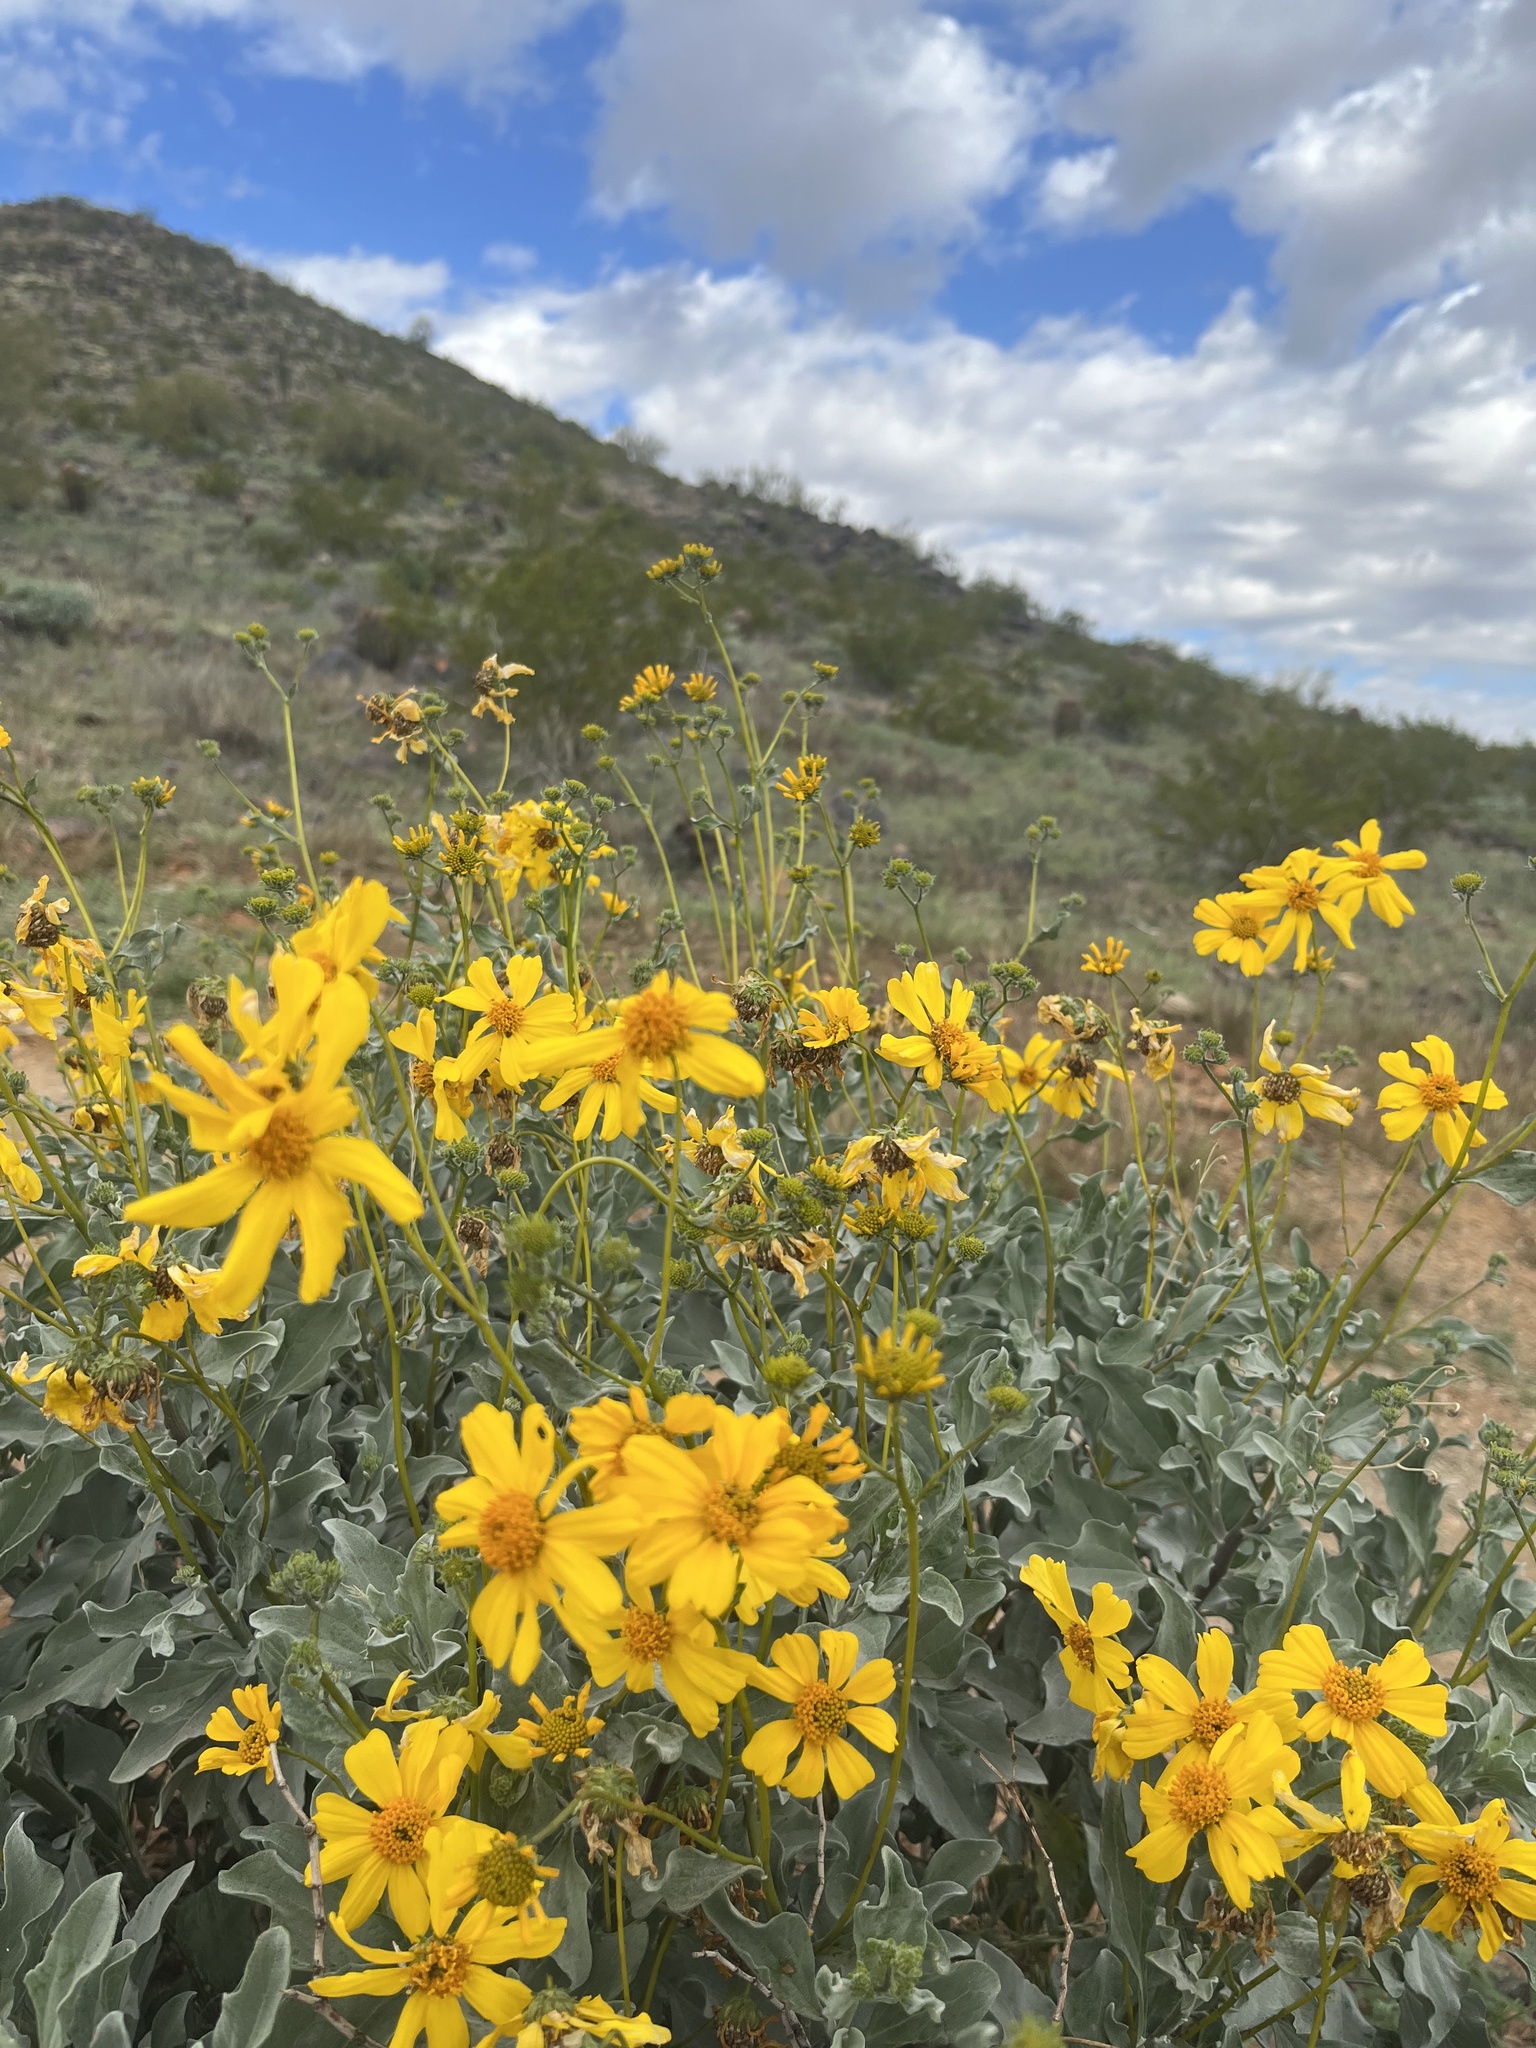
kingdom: Plantae
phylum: Tracheophyta
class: Magnoliopsida
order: Asterales
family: Asteraceae
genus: Encelia
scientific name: Encelia farinosa
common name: Brittlebush
